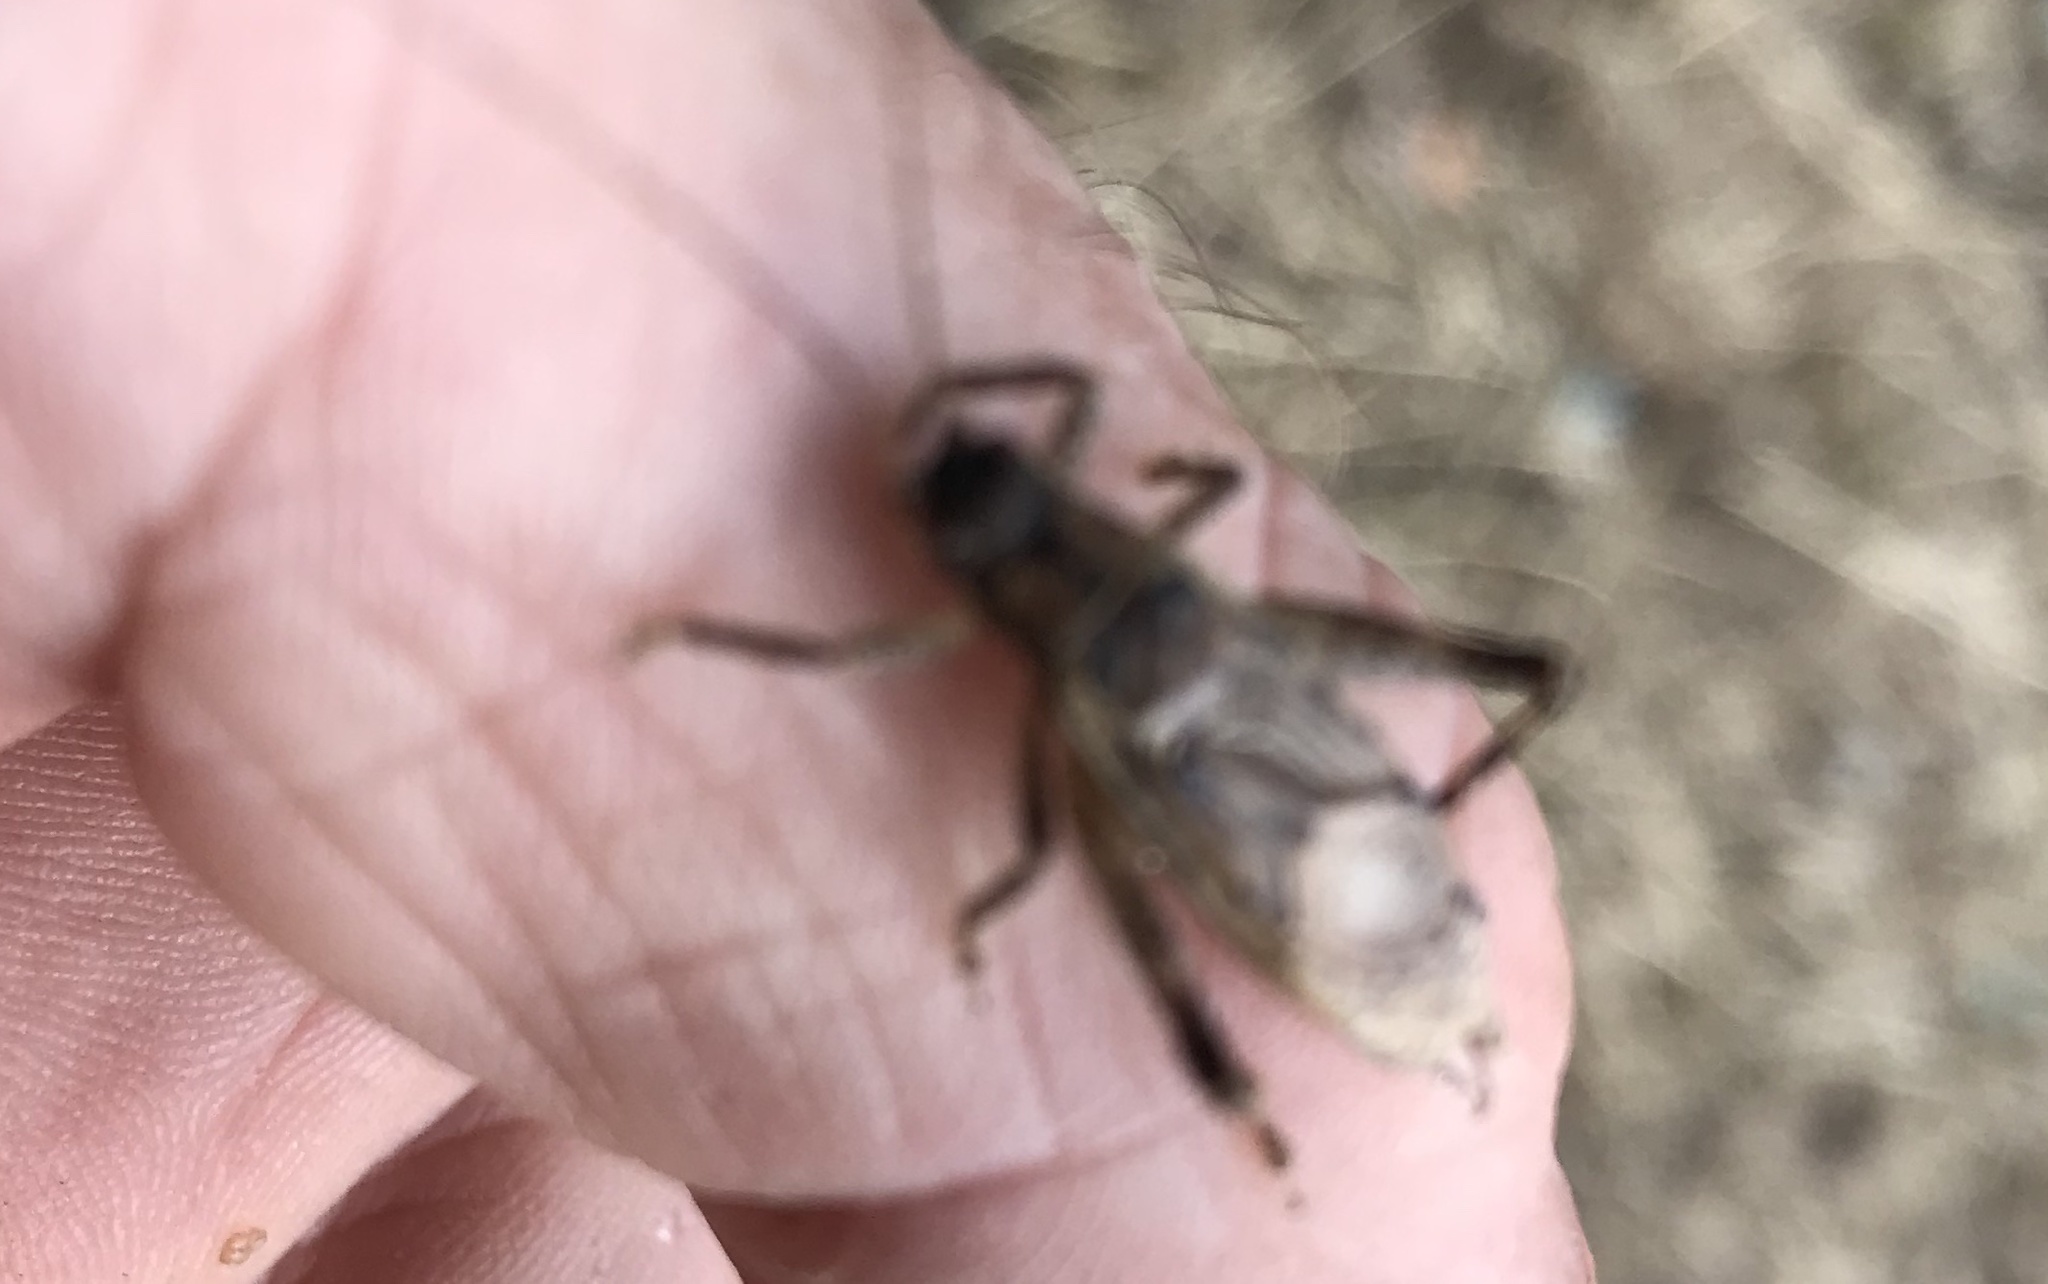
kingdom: Animalia
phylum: Arthropoda
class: Insecta
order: Orthoptera
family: Gryllidae
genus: Hapithus
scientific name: Hapithus saltator
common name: Jumping bush cricket
